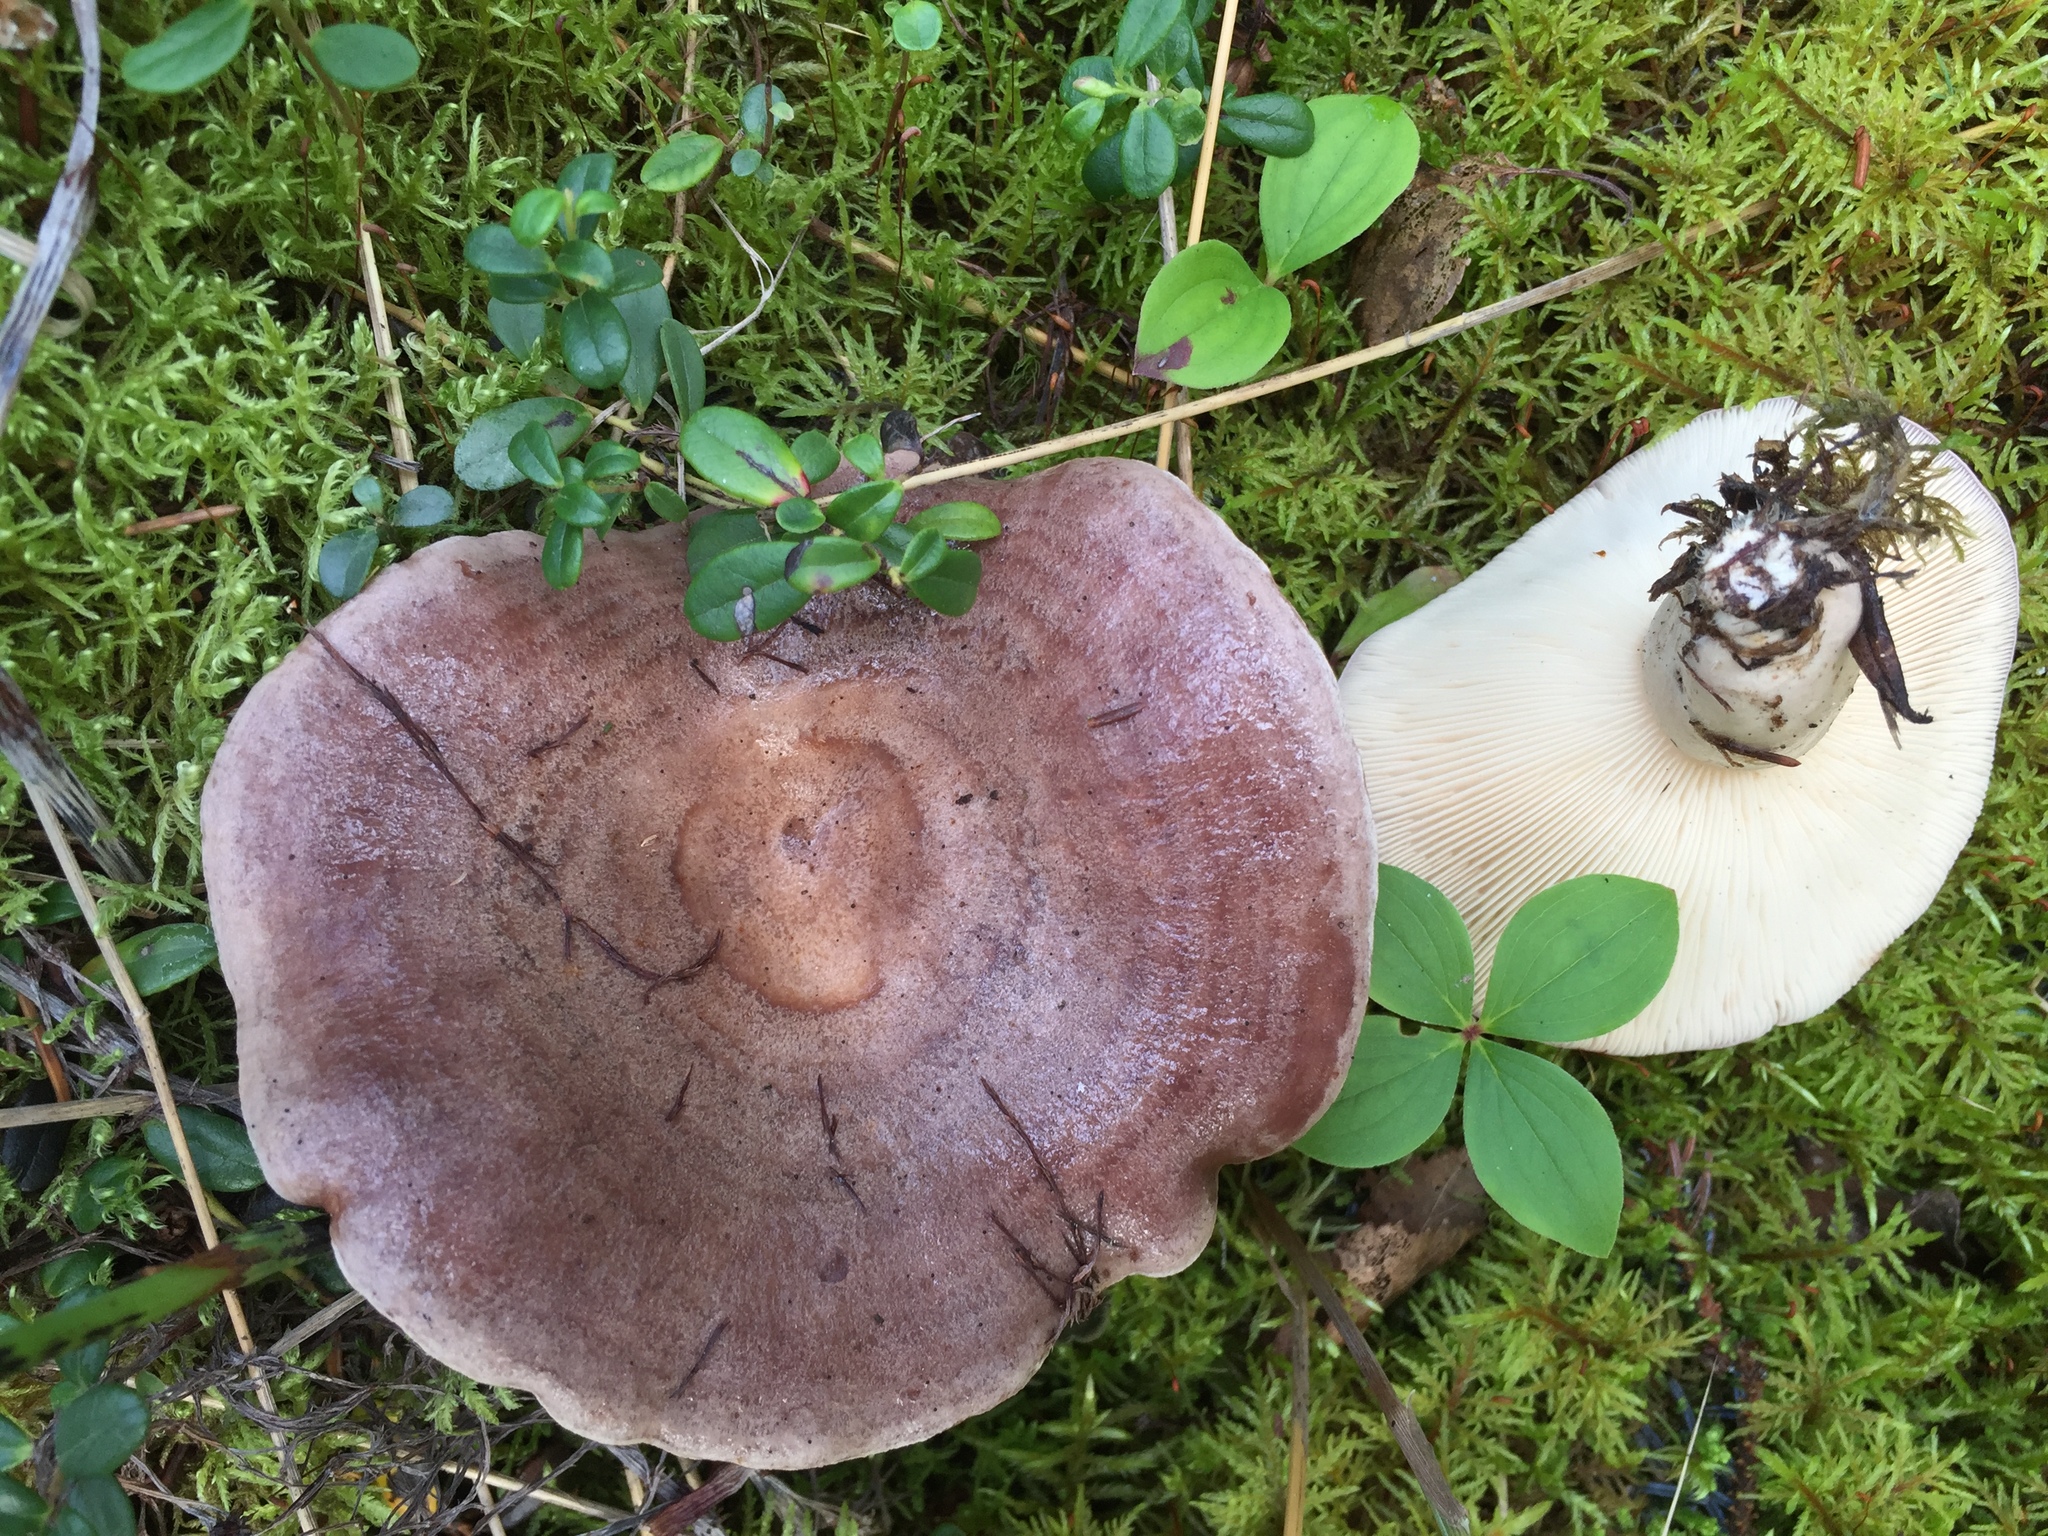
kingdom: Fungi
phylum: Basidiomycota
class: Agaricomycetes
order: Russulales
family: Russulaceae
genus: Lactarius
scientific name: Lactarius circellatus
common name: Circled milkcap
